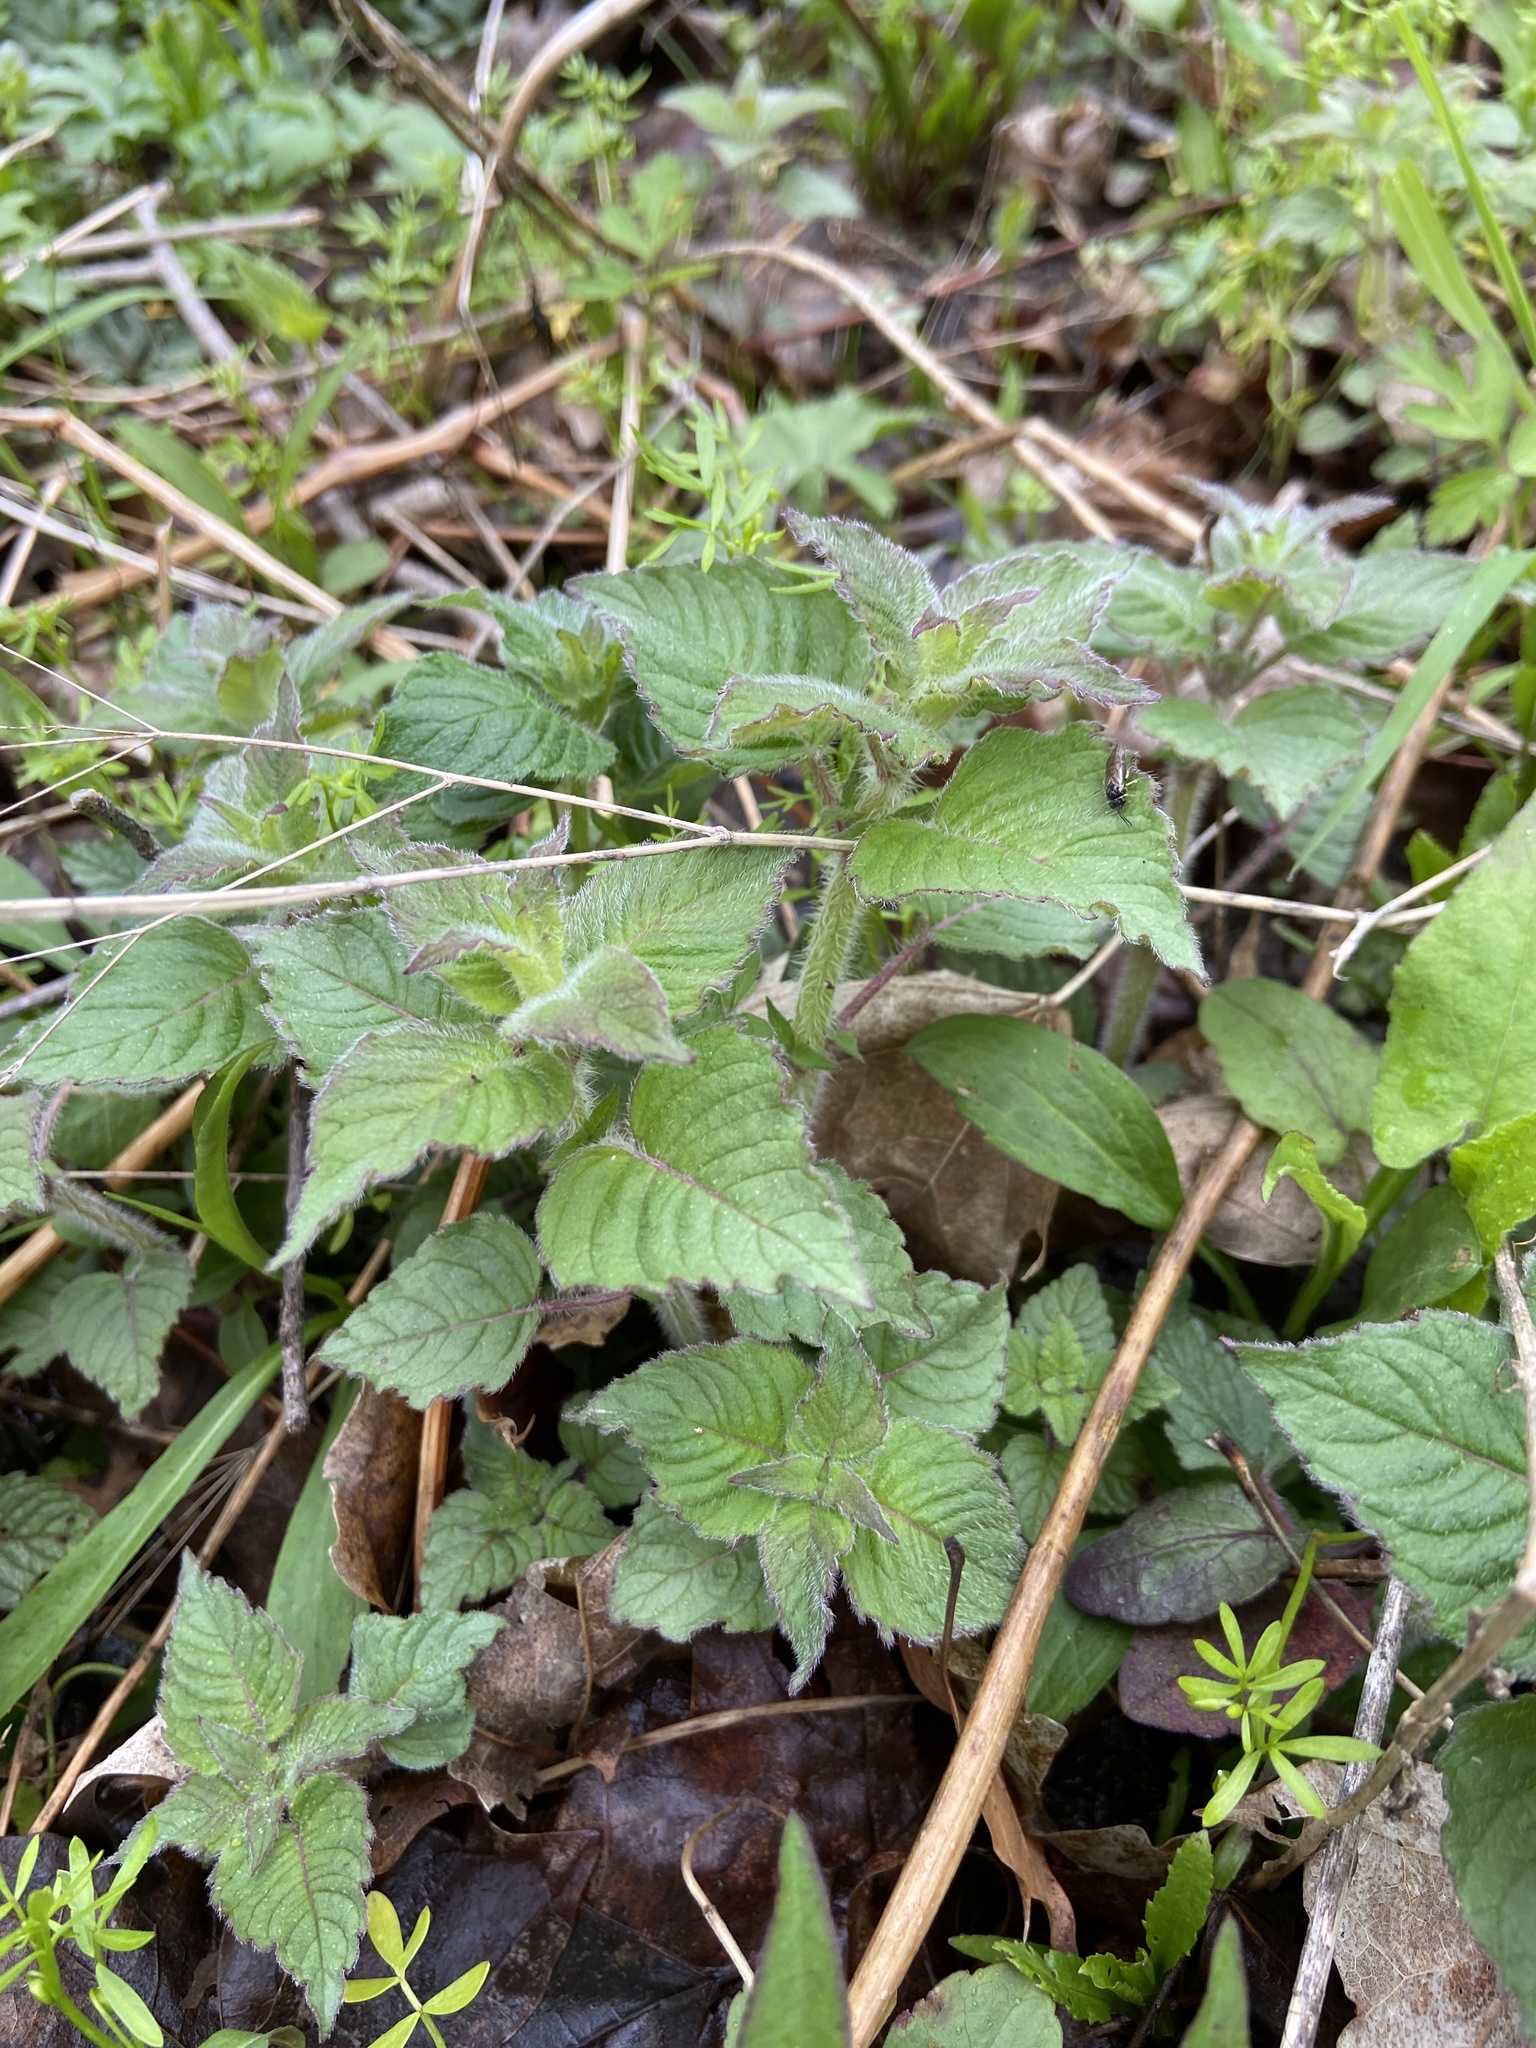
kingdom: Plantae
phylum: Tracheophyta
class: Magnoliopsida
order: Lamiales
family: Lamiaceae
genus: Blephilia
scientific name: Blephilia hirsuta
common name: Hairy blephilia
